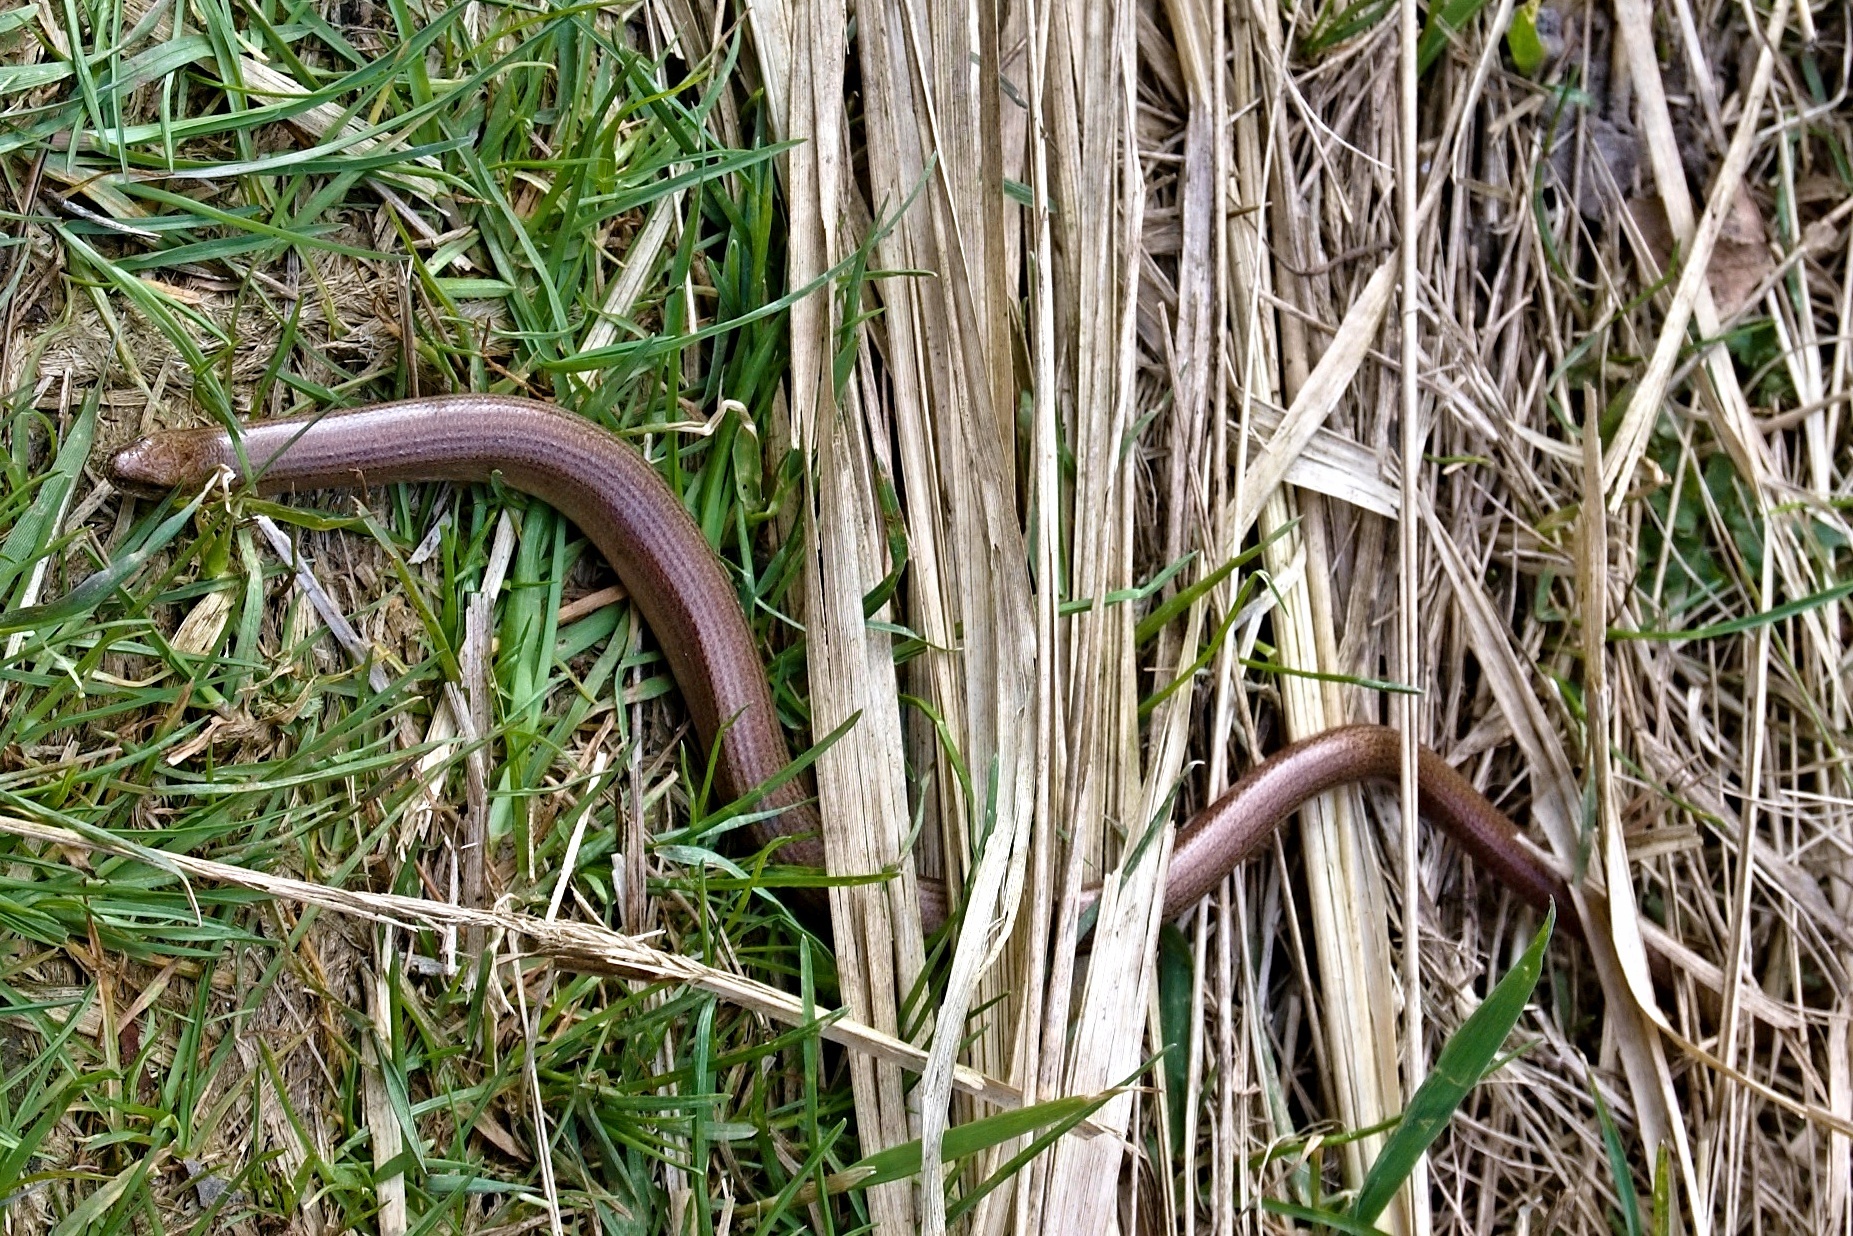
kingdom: Animalia
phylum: Chordata
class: Squamata
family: Anguidae
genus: Anguis
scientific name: Anguis fragilis
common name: Slow worm
